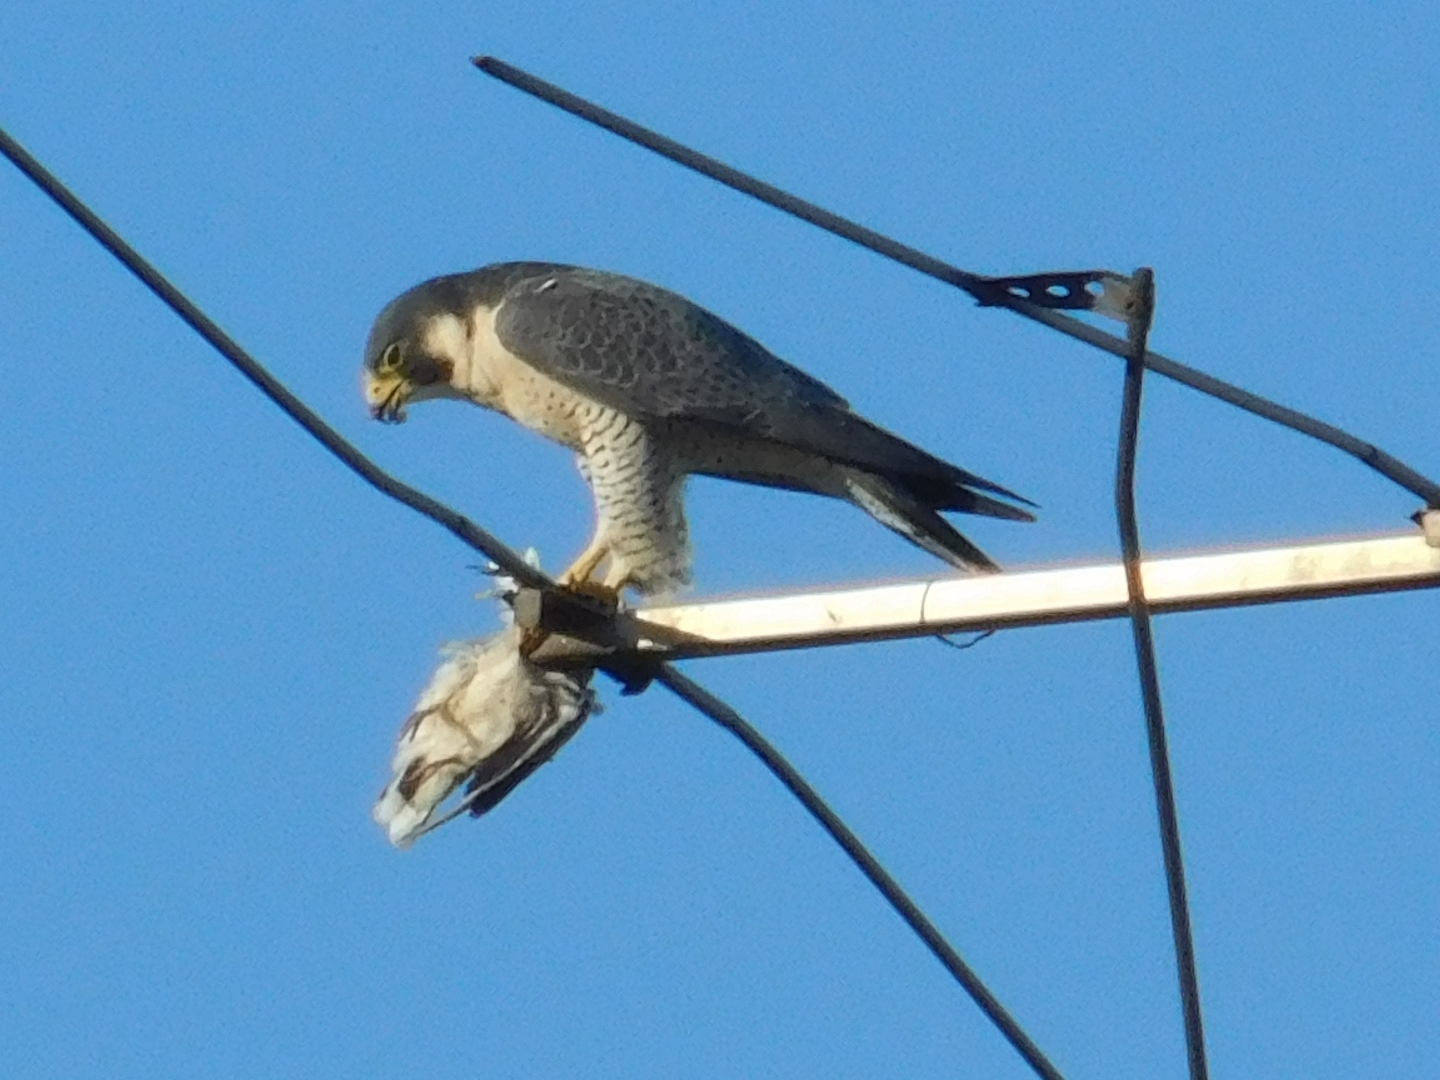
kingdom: Animalia
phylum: Chordata
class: Aves
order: Falconiformes
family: Falconidae
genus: Falco
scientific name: Falco peregrinus
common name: Peregrine falcon
